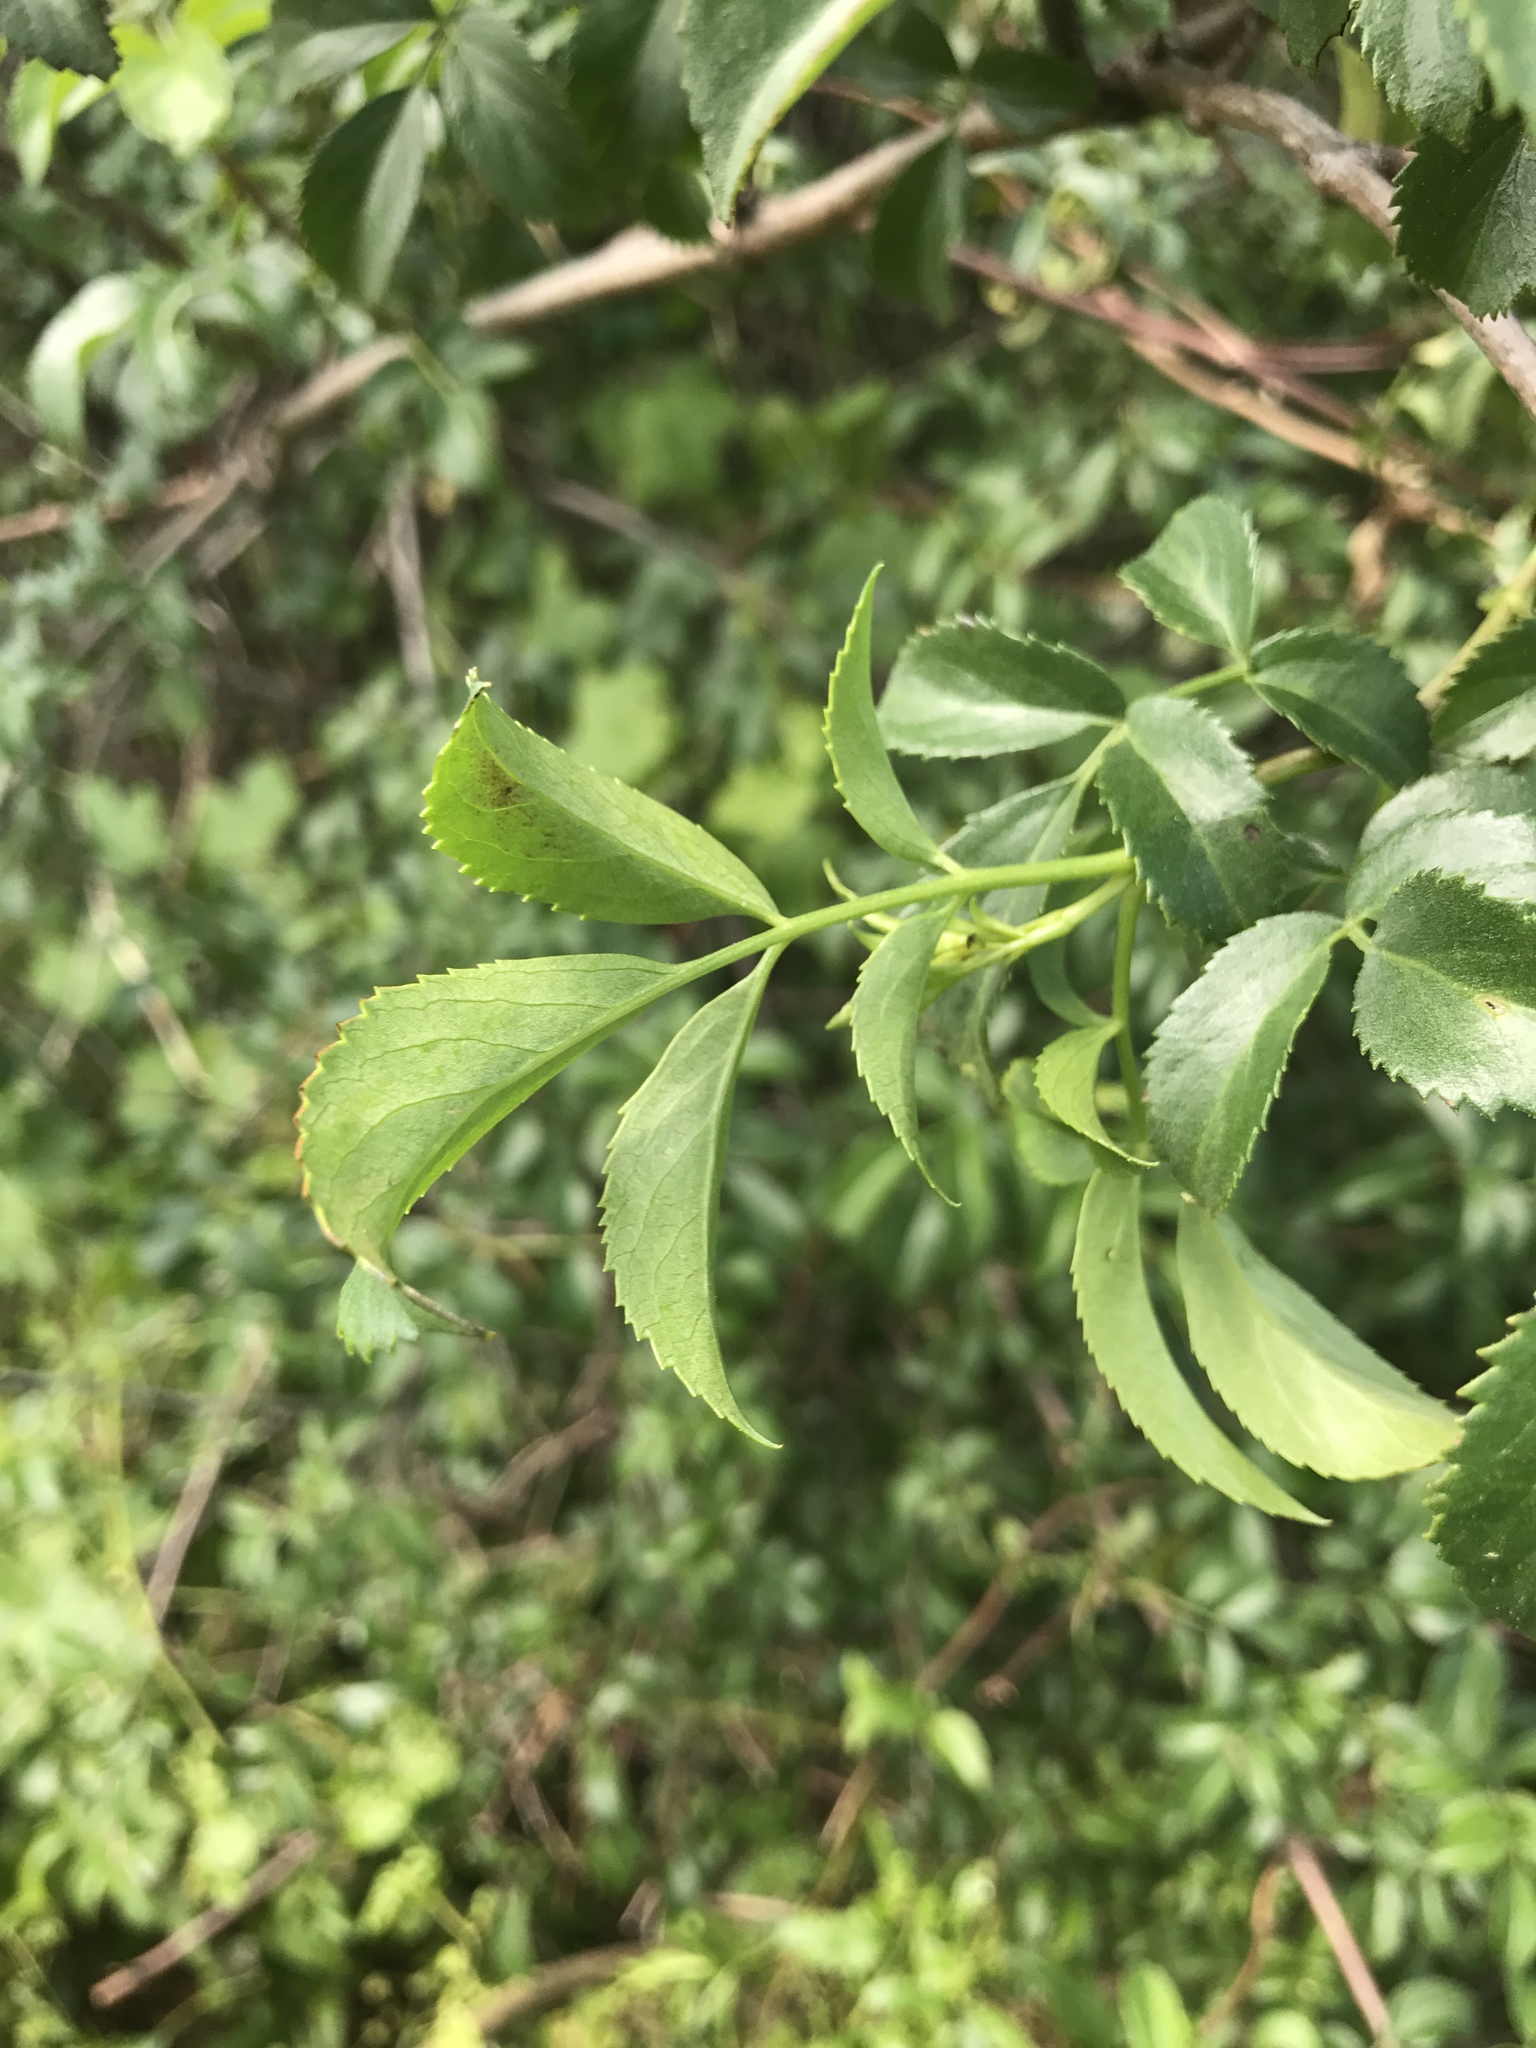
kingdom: Plantae
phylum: Tracheophyta
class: Magnoliopsida
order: Dipsacales
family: Viburnaceae
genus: Sambucus
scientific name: Sambucus cerulea
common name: Blue elder
